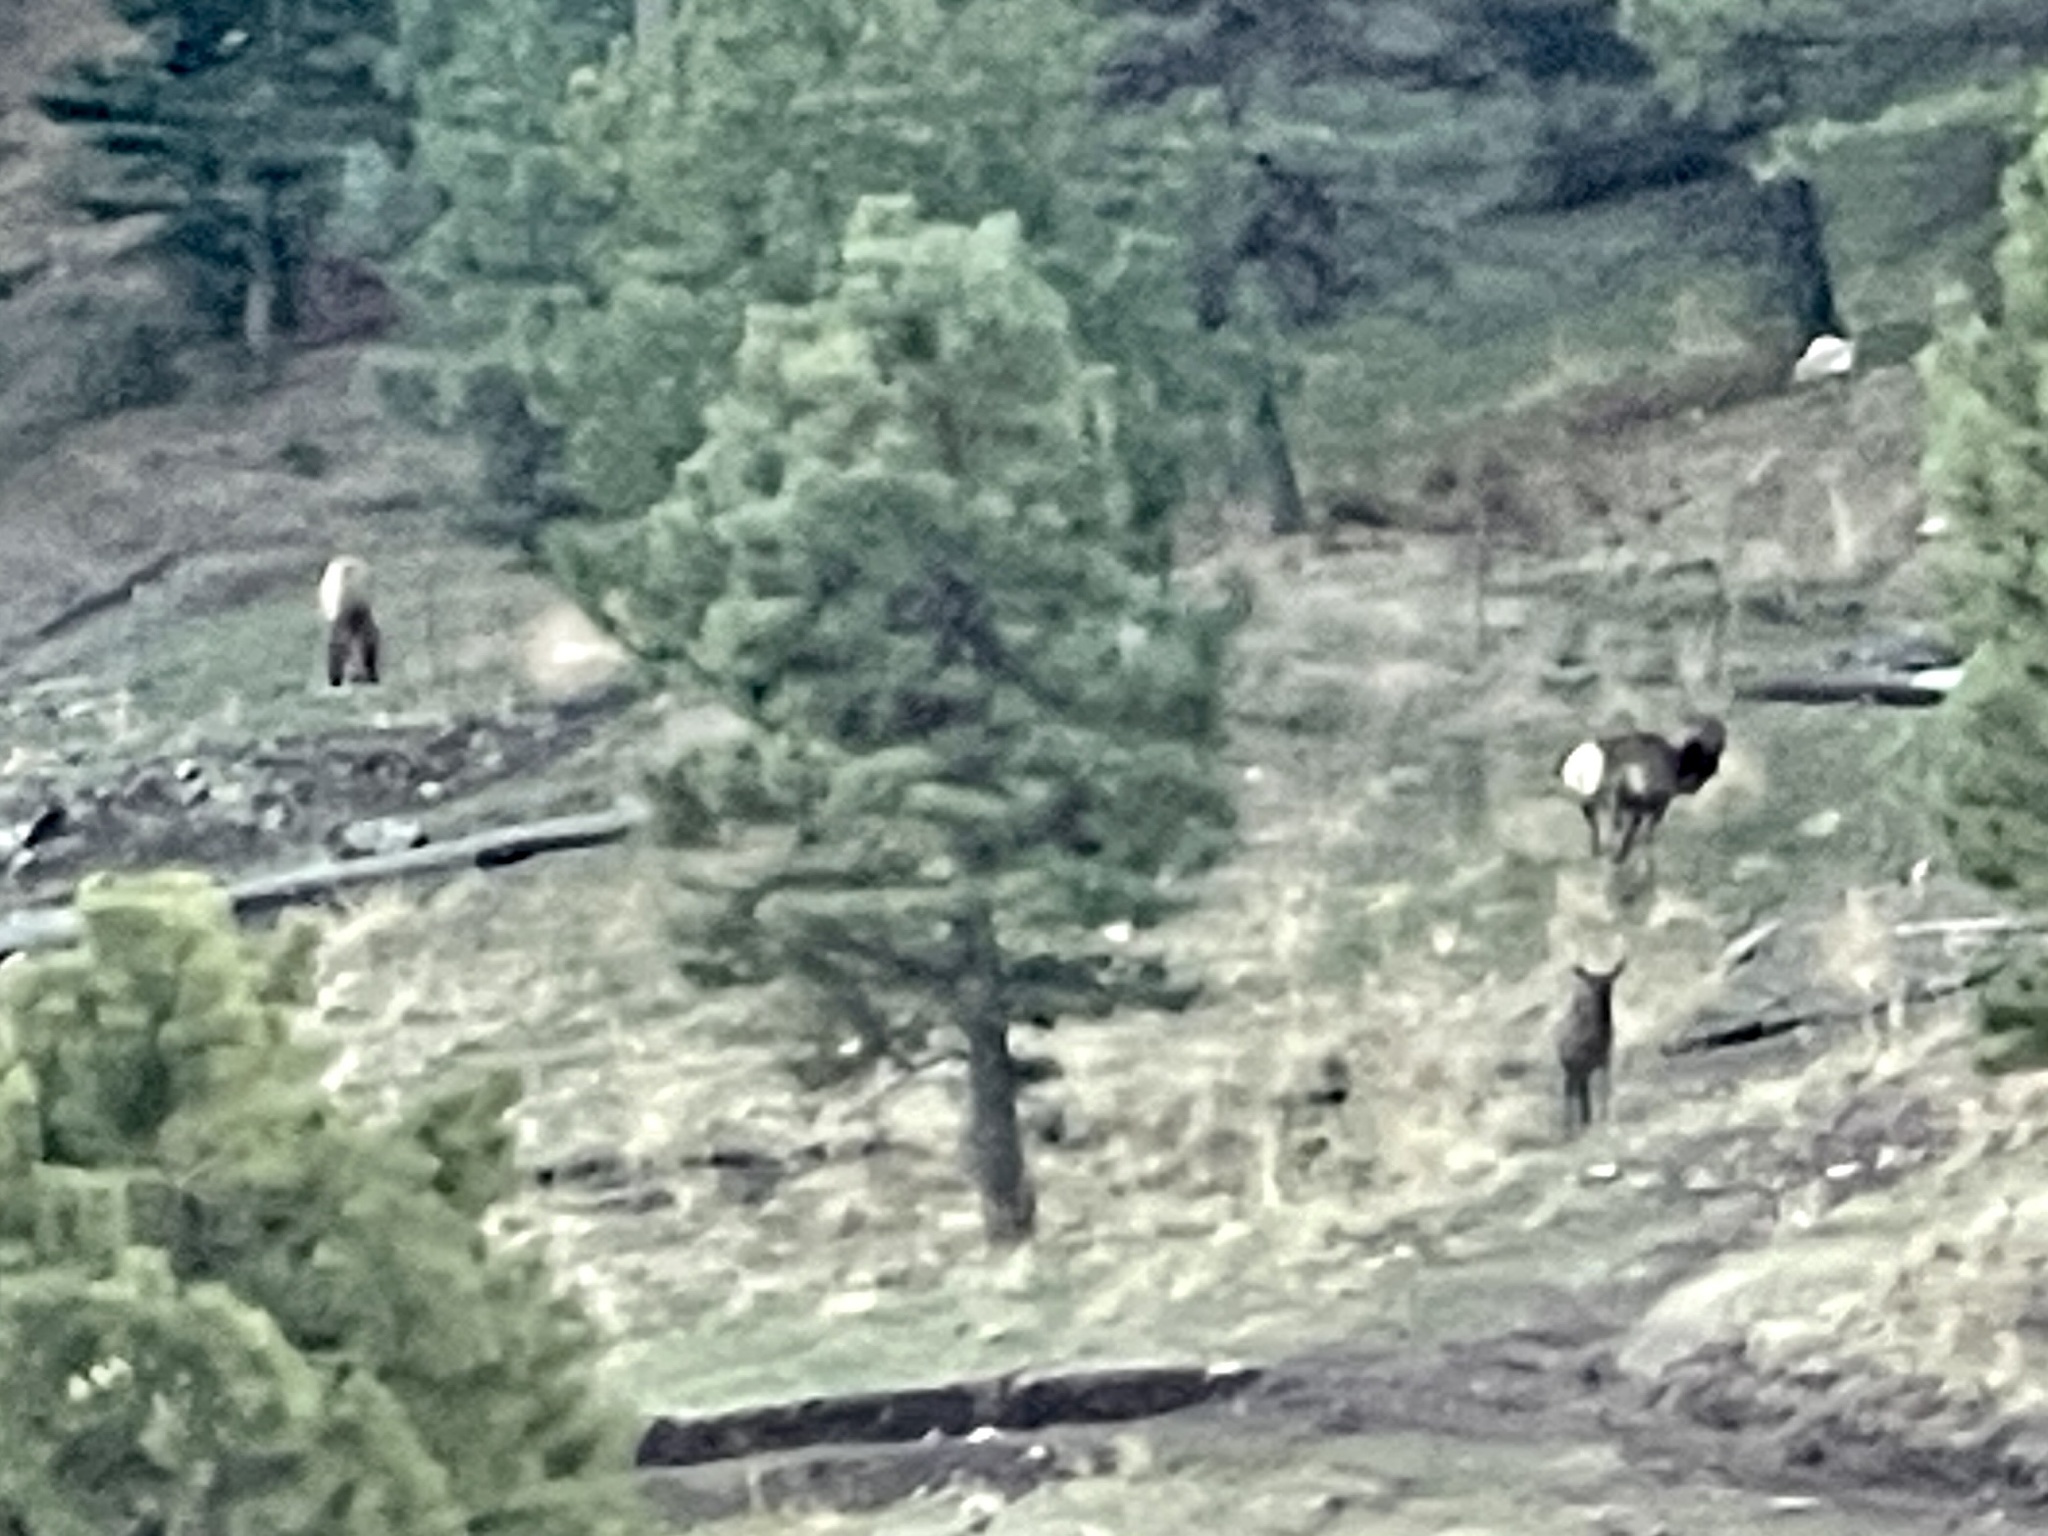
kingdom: Animalia
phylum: Chordata
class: Mammalia
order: Artiodactyla
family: Cervidae
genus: Cervus
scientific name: Cervus elaphus
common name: Red deer
